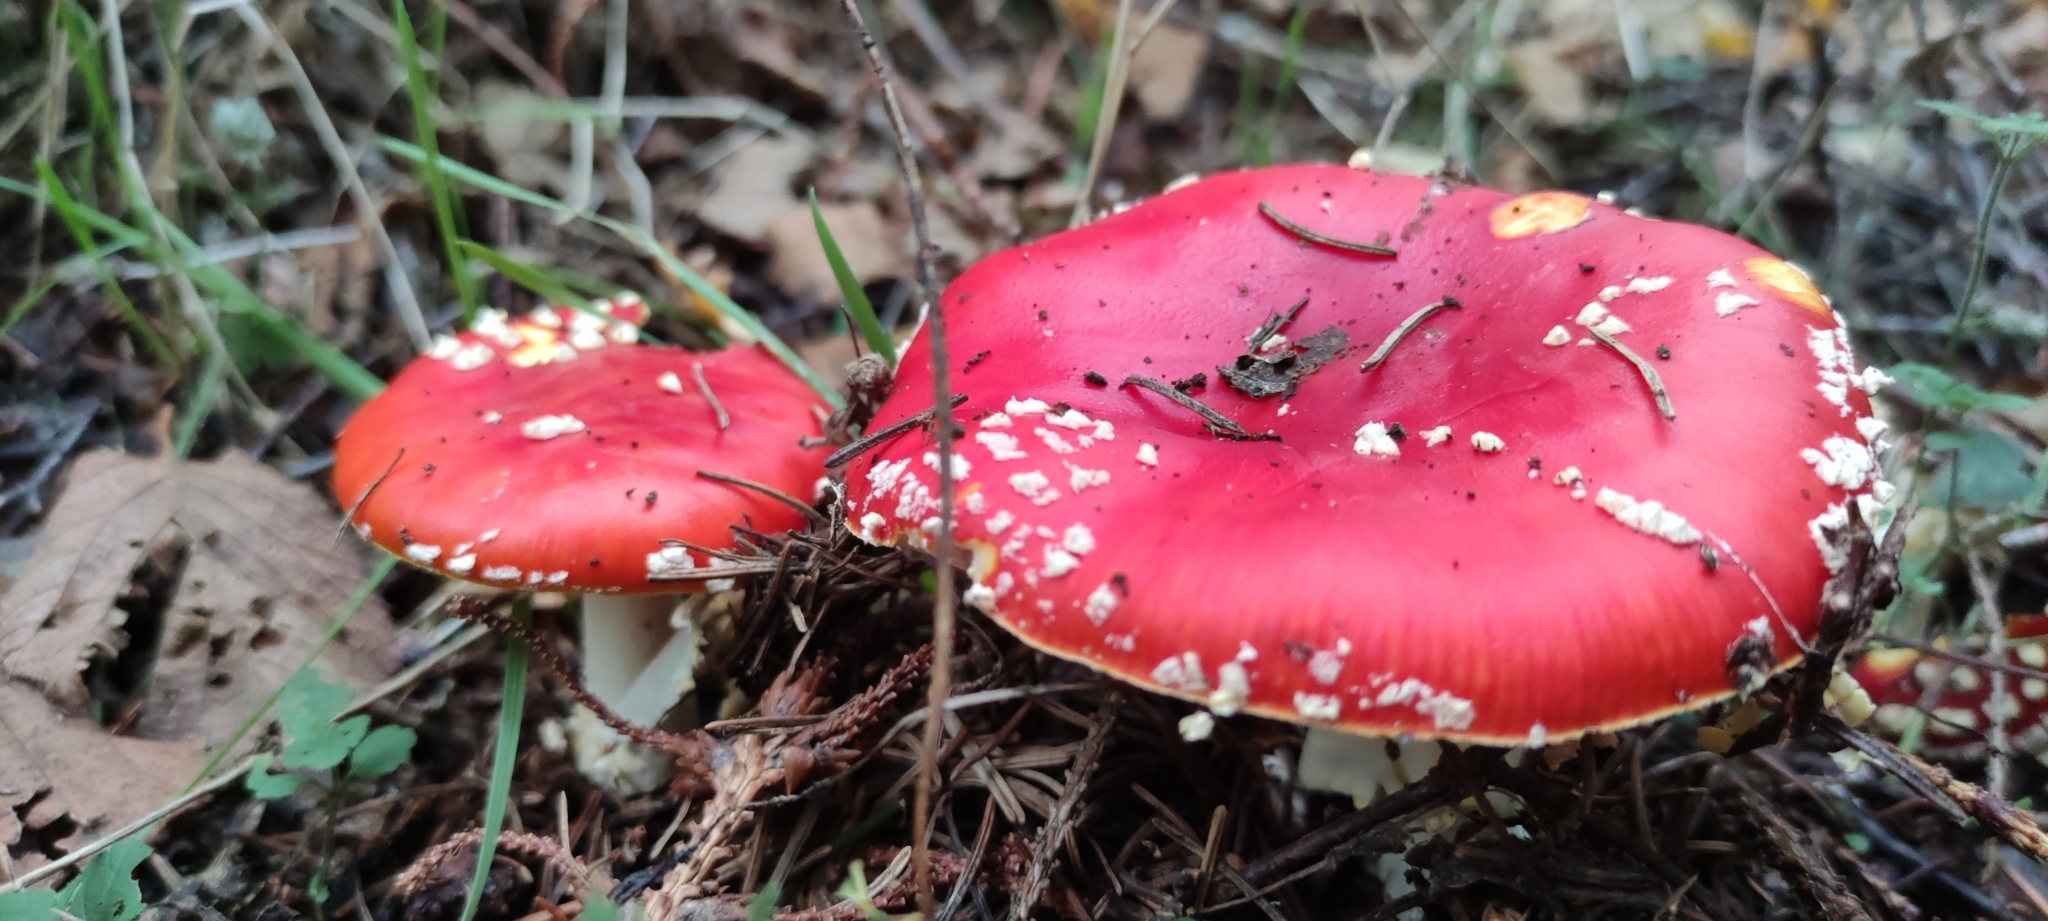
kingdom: Fungi
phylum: Basidiomycota
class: Agaricomycetes
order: Agaricales
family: Amanitaceae
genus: Amanita
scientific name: Amanita muscaria
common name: Fly agaric
